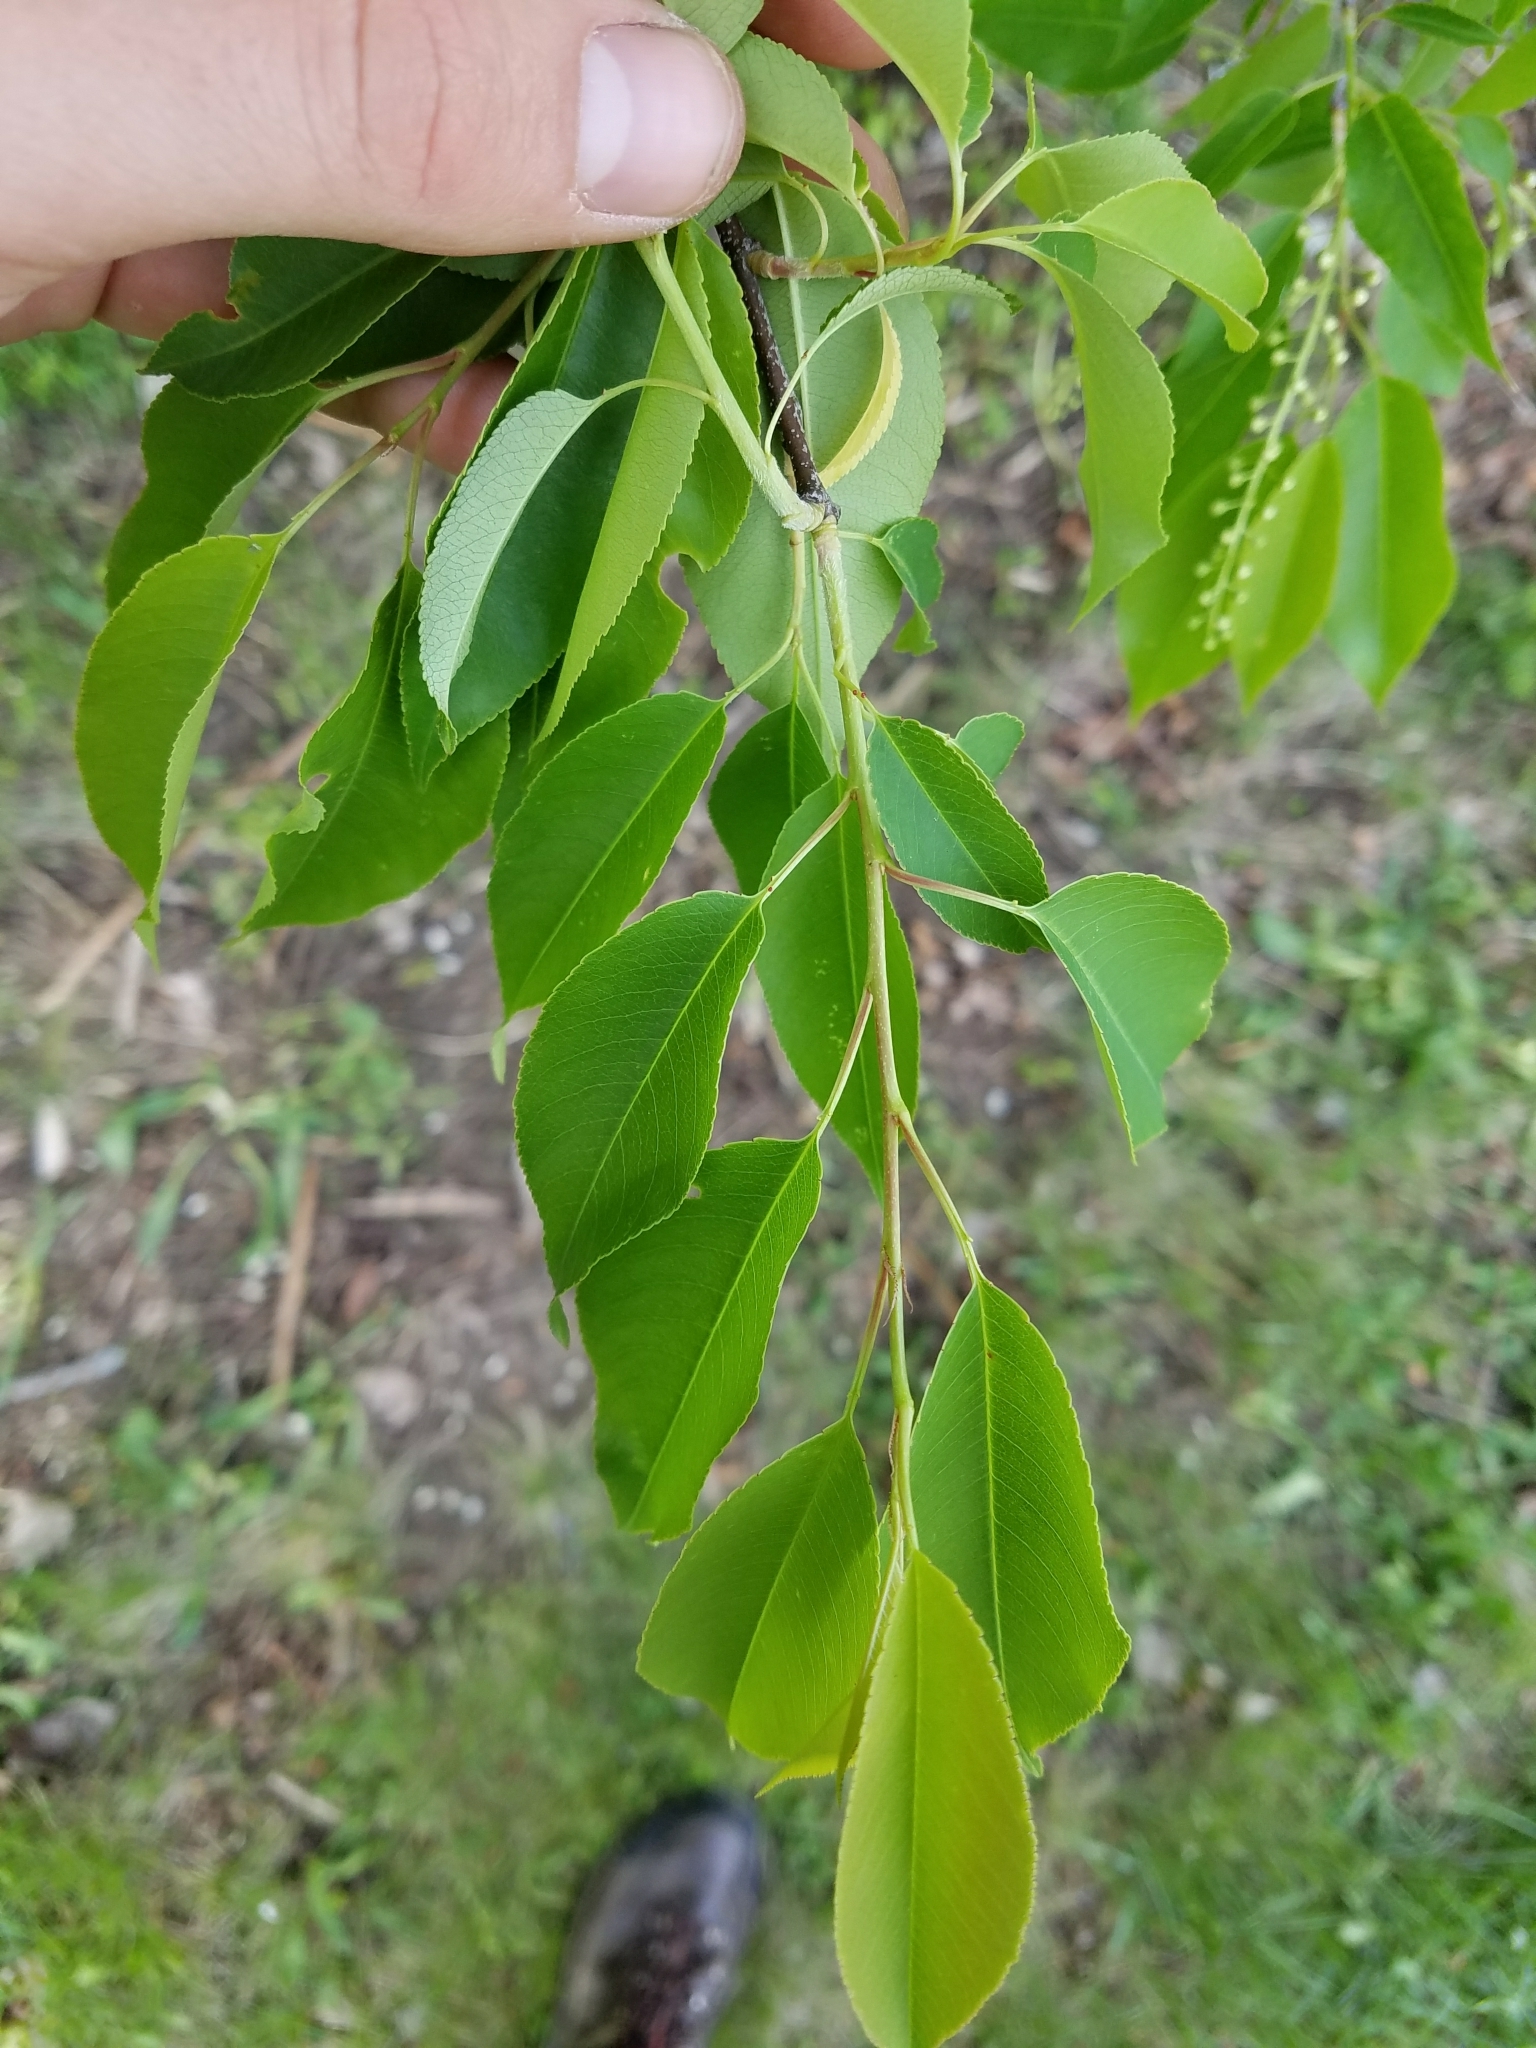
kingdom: Plantae
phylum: Tracheophyta
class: Magnoliopsida
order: Rosales
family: Rosaceae
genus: Prunus
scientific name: Prunus serotina
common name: Black cherry
